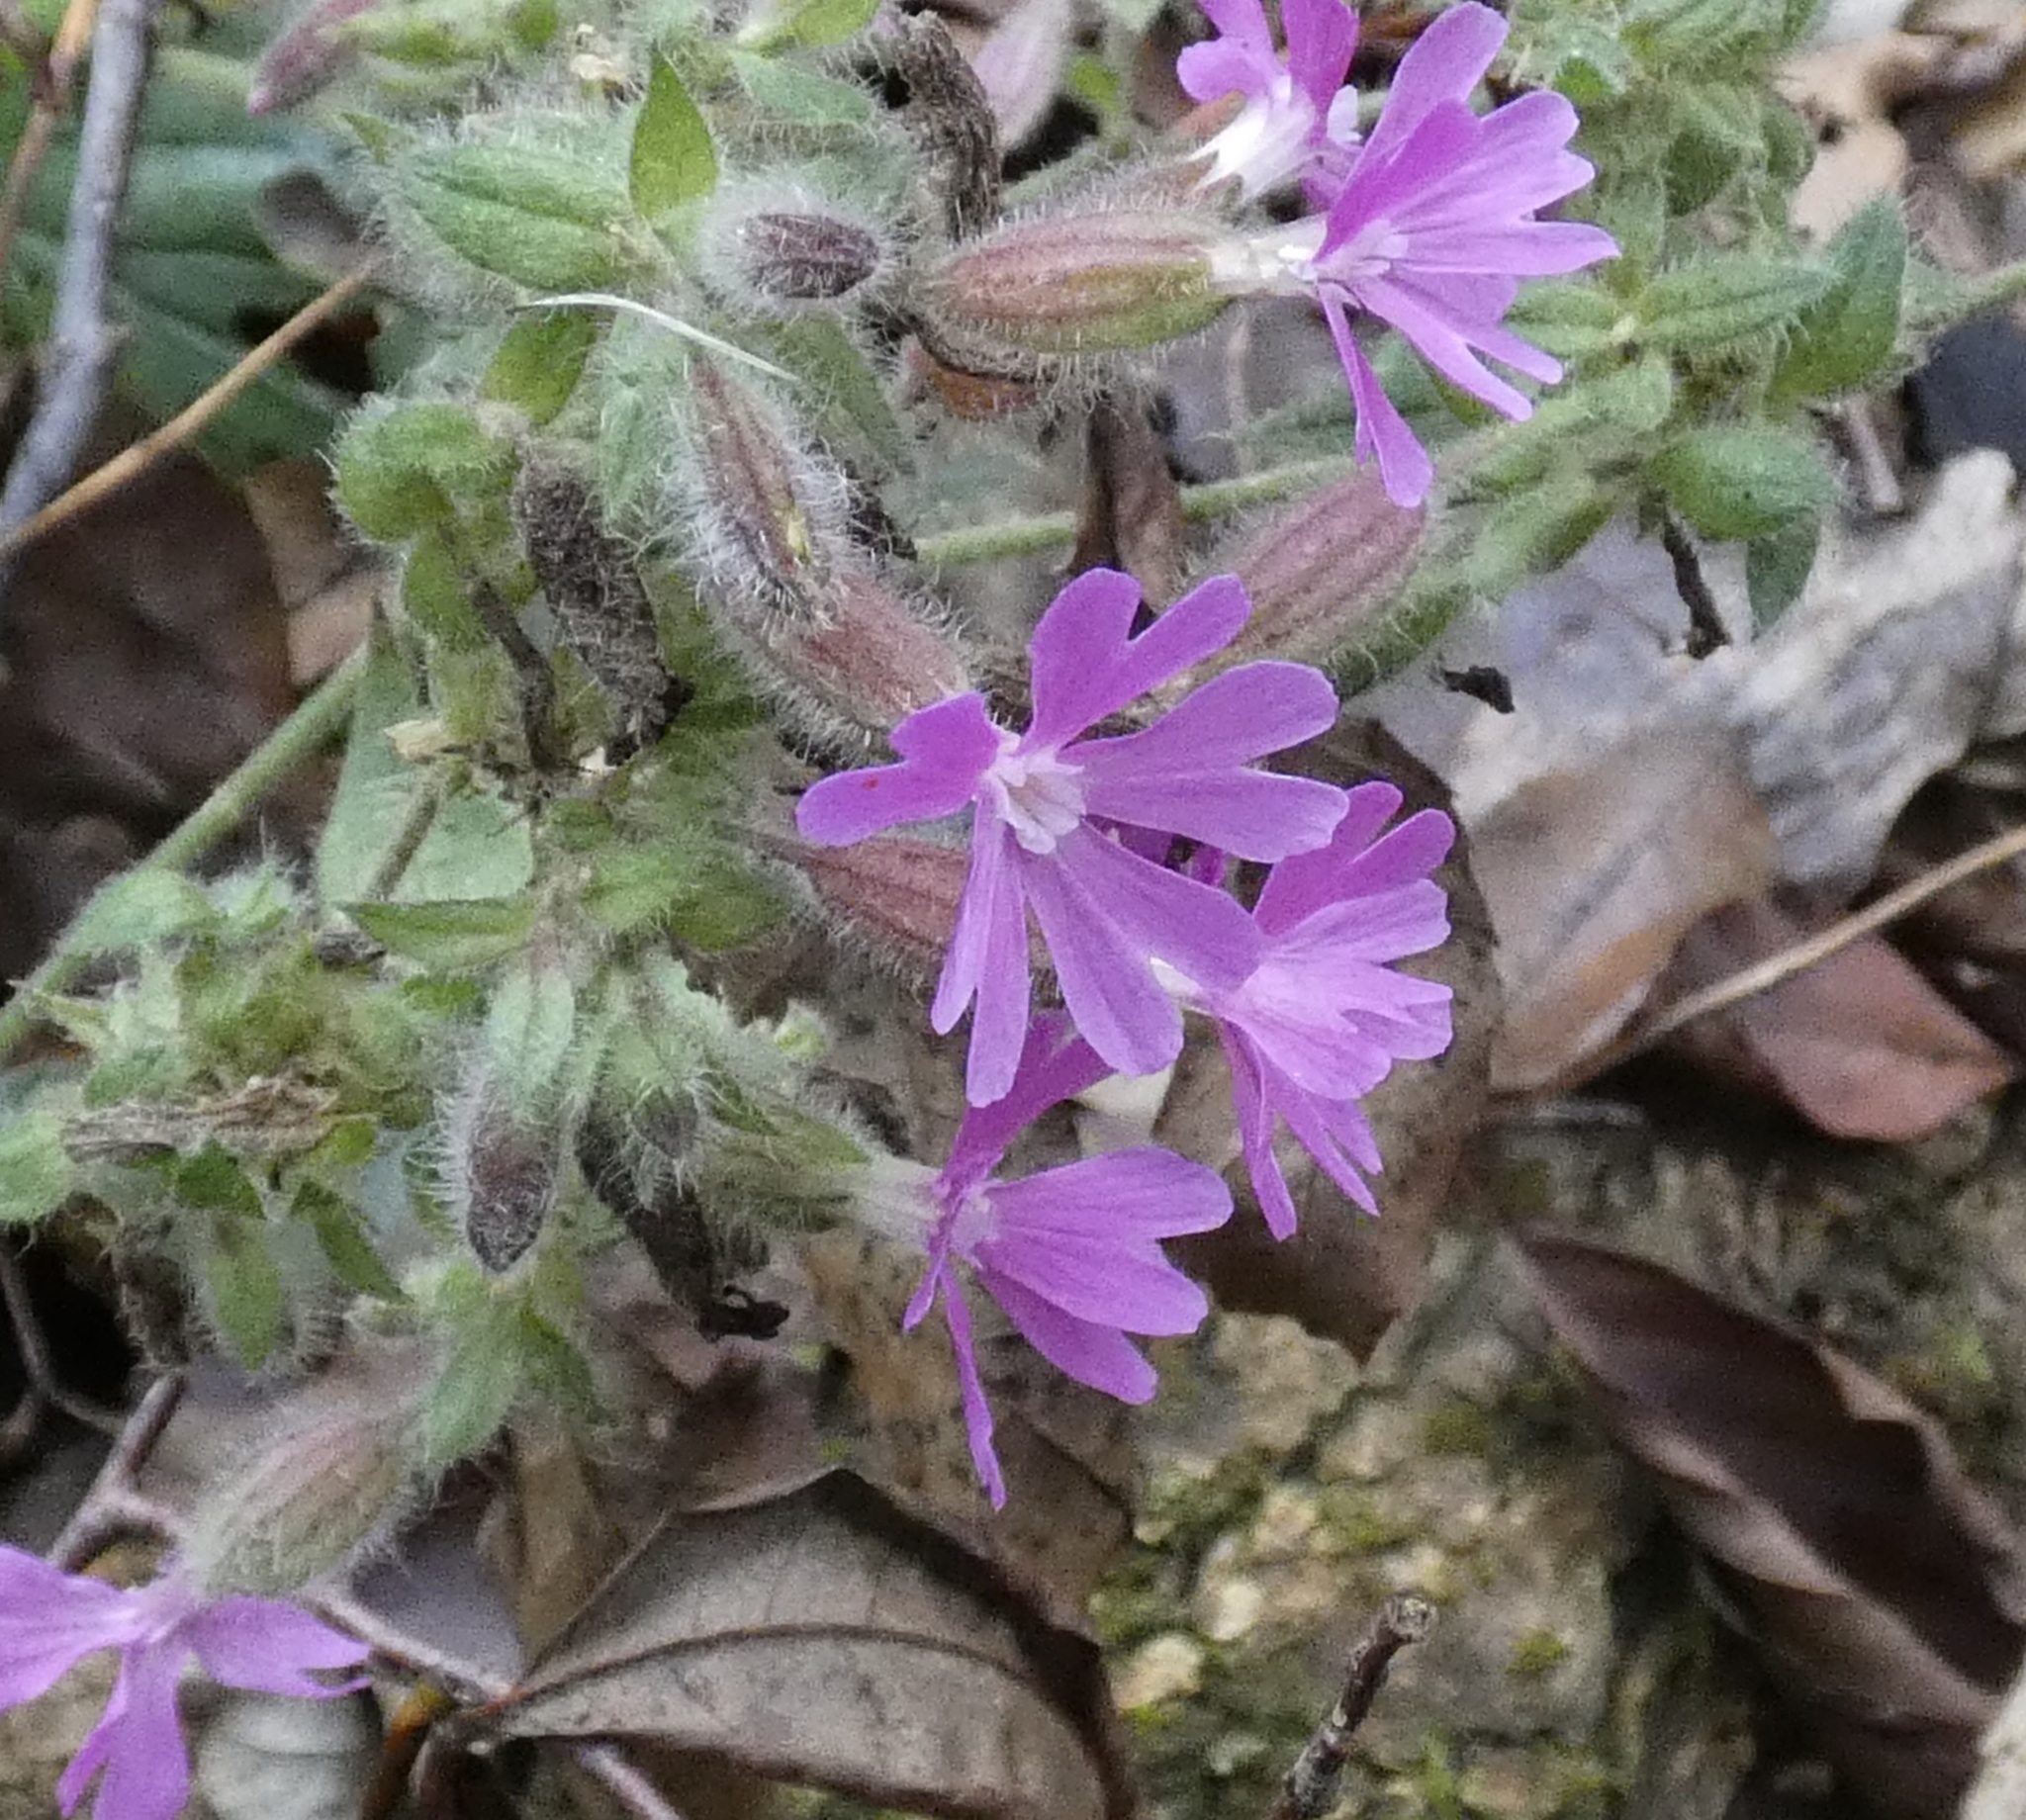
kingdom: Plantae
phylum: Tracheophyta
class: Magnoliopsida
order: Caryophyllales
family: Caryophyllaceae
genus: Silene
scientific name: Silene dioica
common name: Red campion
